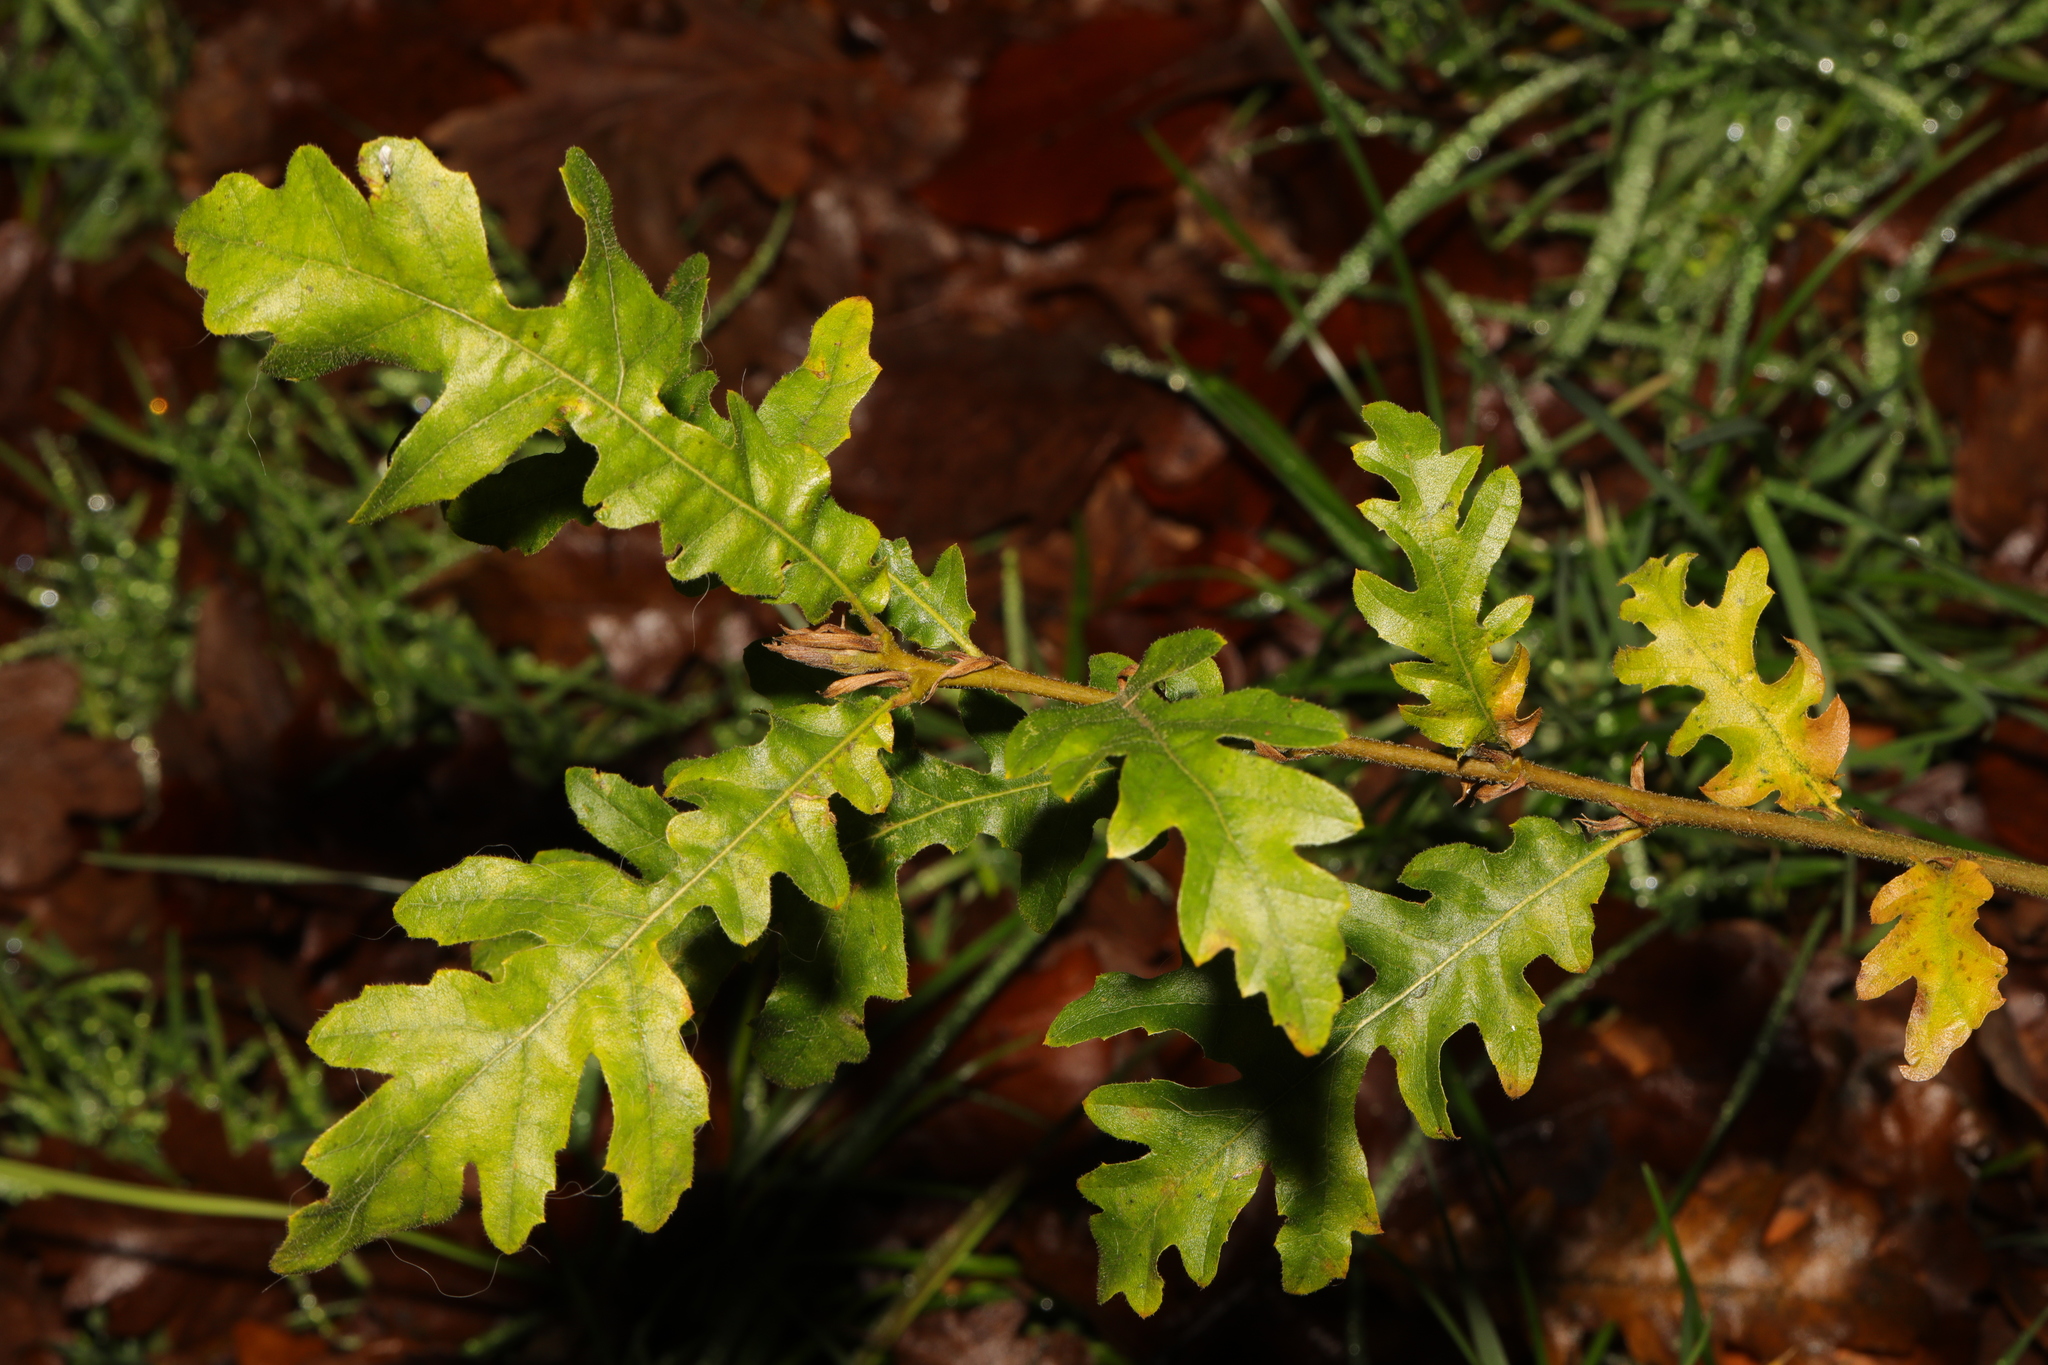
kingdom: Plantae
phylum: Tracheophyta
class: Magnoliopsida
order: Fagales
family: Fagaceae
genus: Quercus
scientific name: Quercus cerris
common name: Turkey oak
